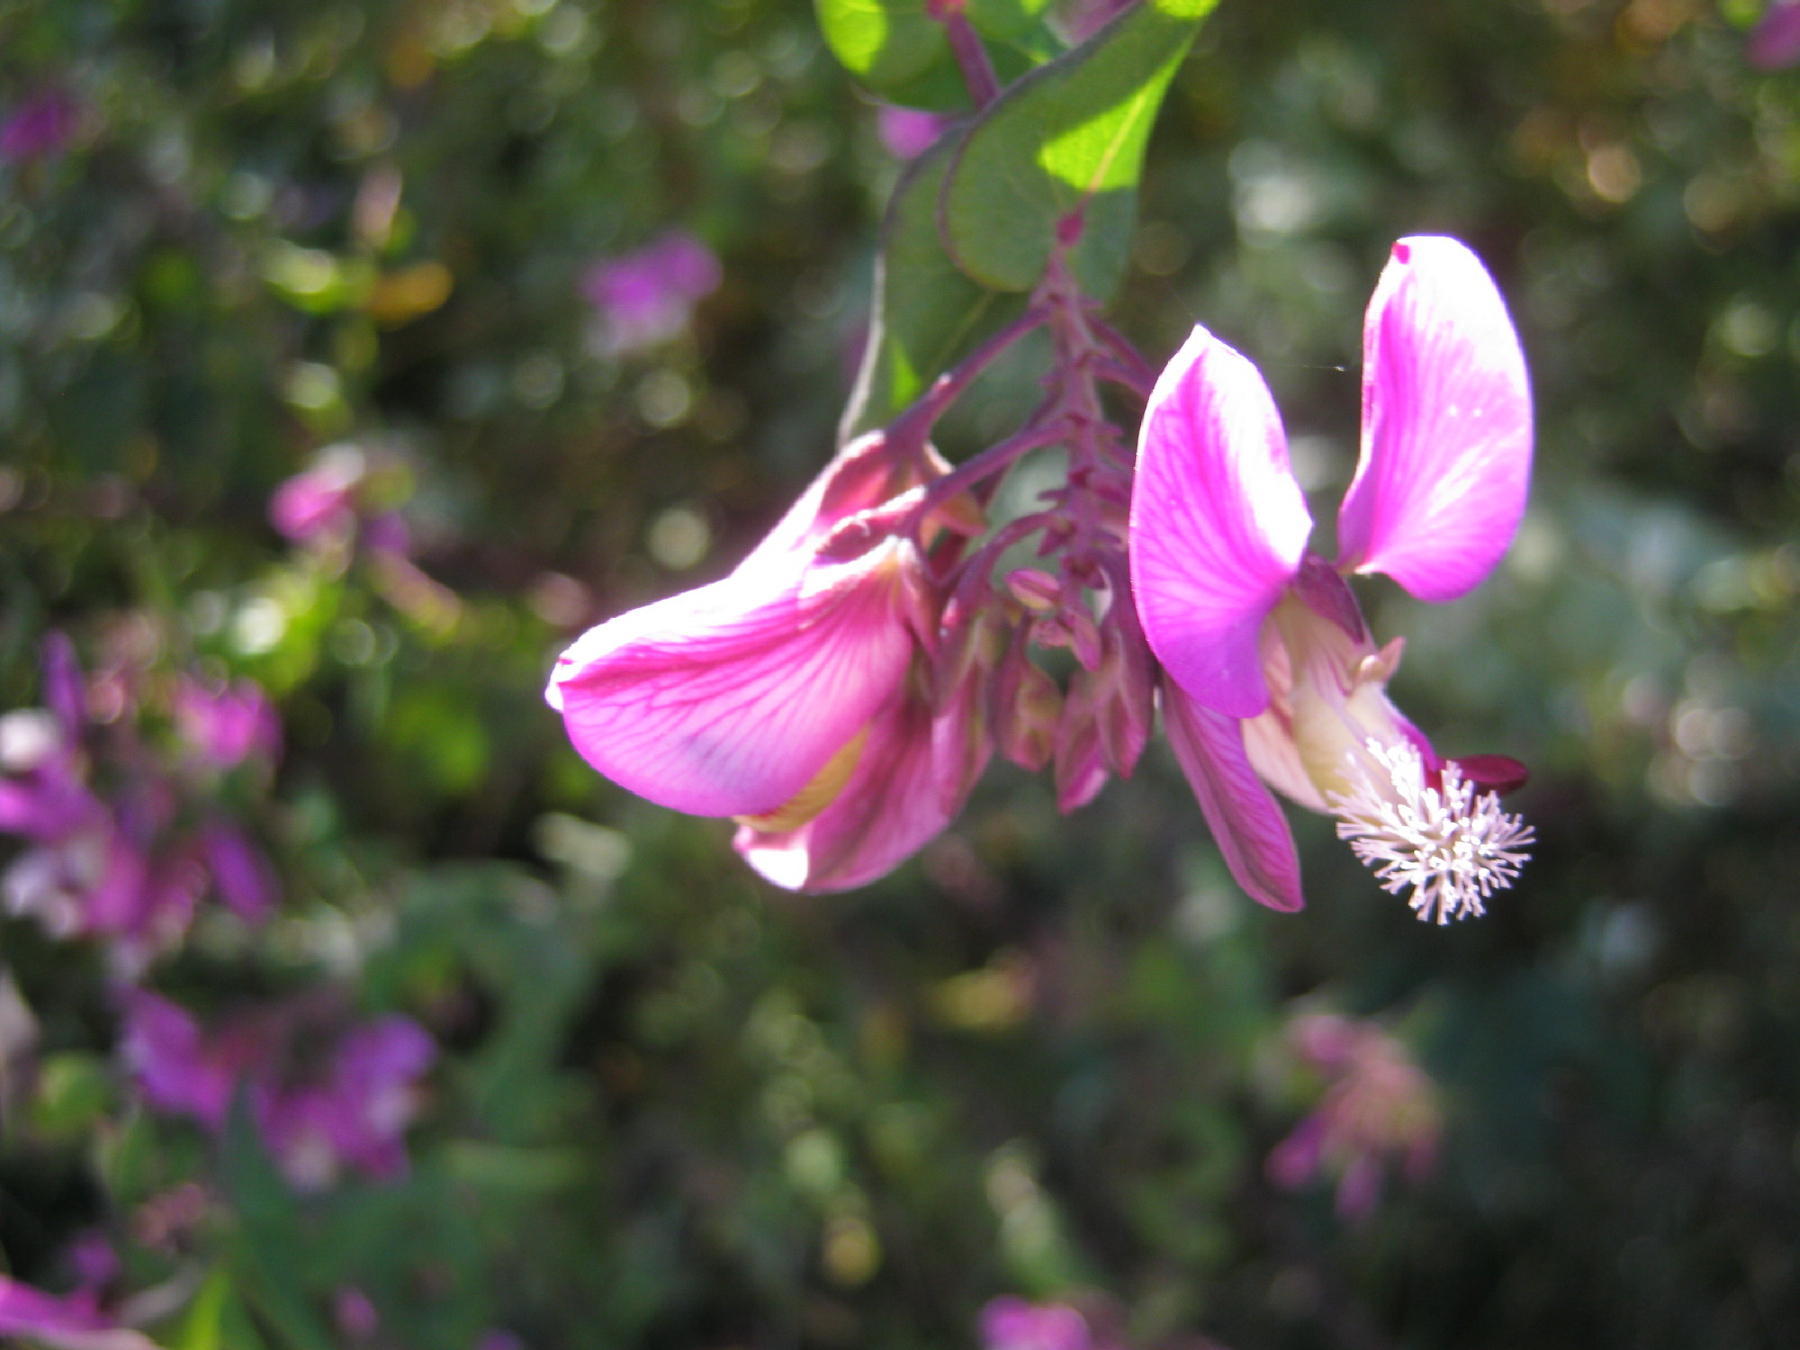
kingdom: Plantae
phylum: Tracheophyta
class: Magnoliopsida
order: Fabales
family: Polygalaceae
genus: Polygala
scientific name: Polygala fruticosa
